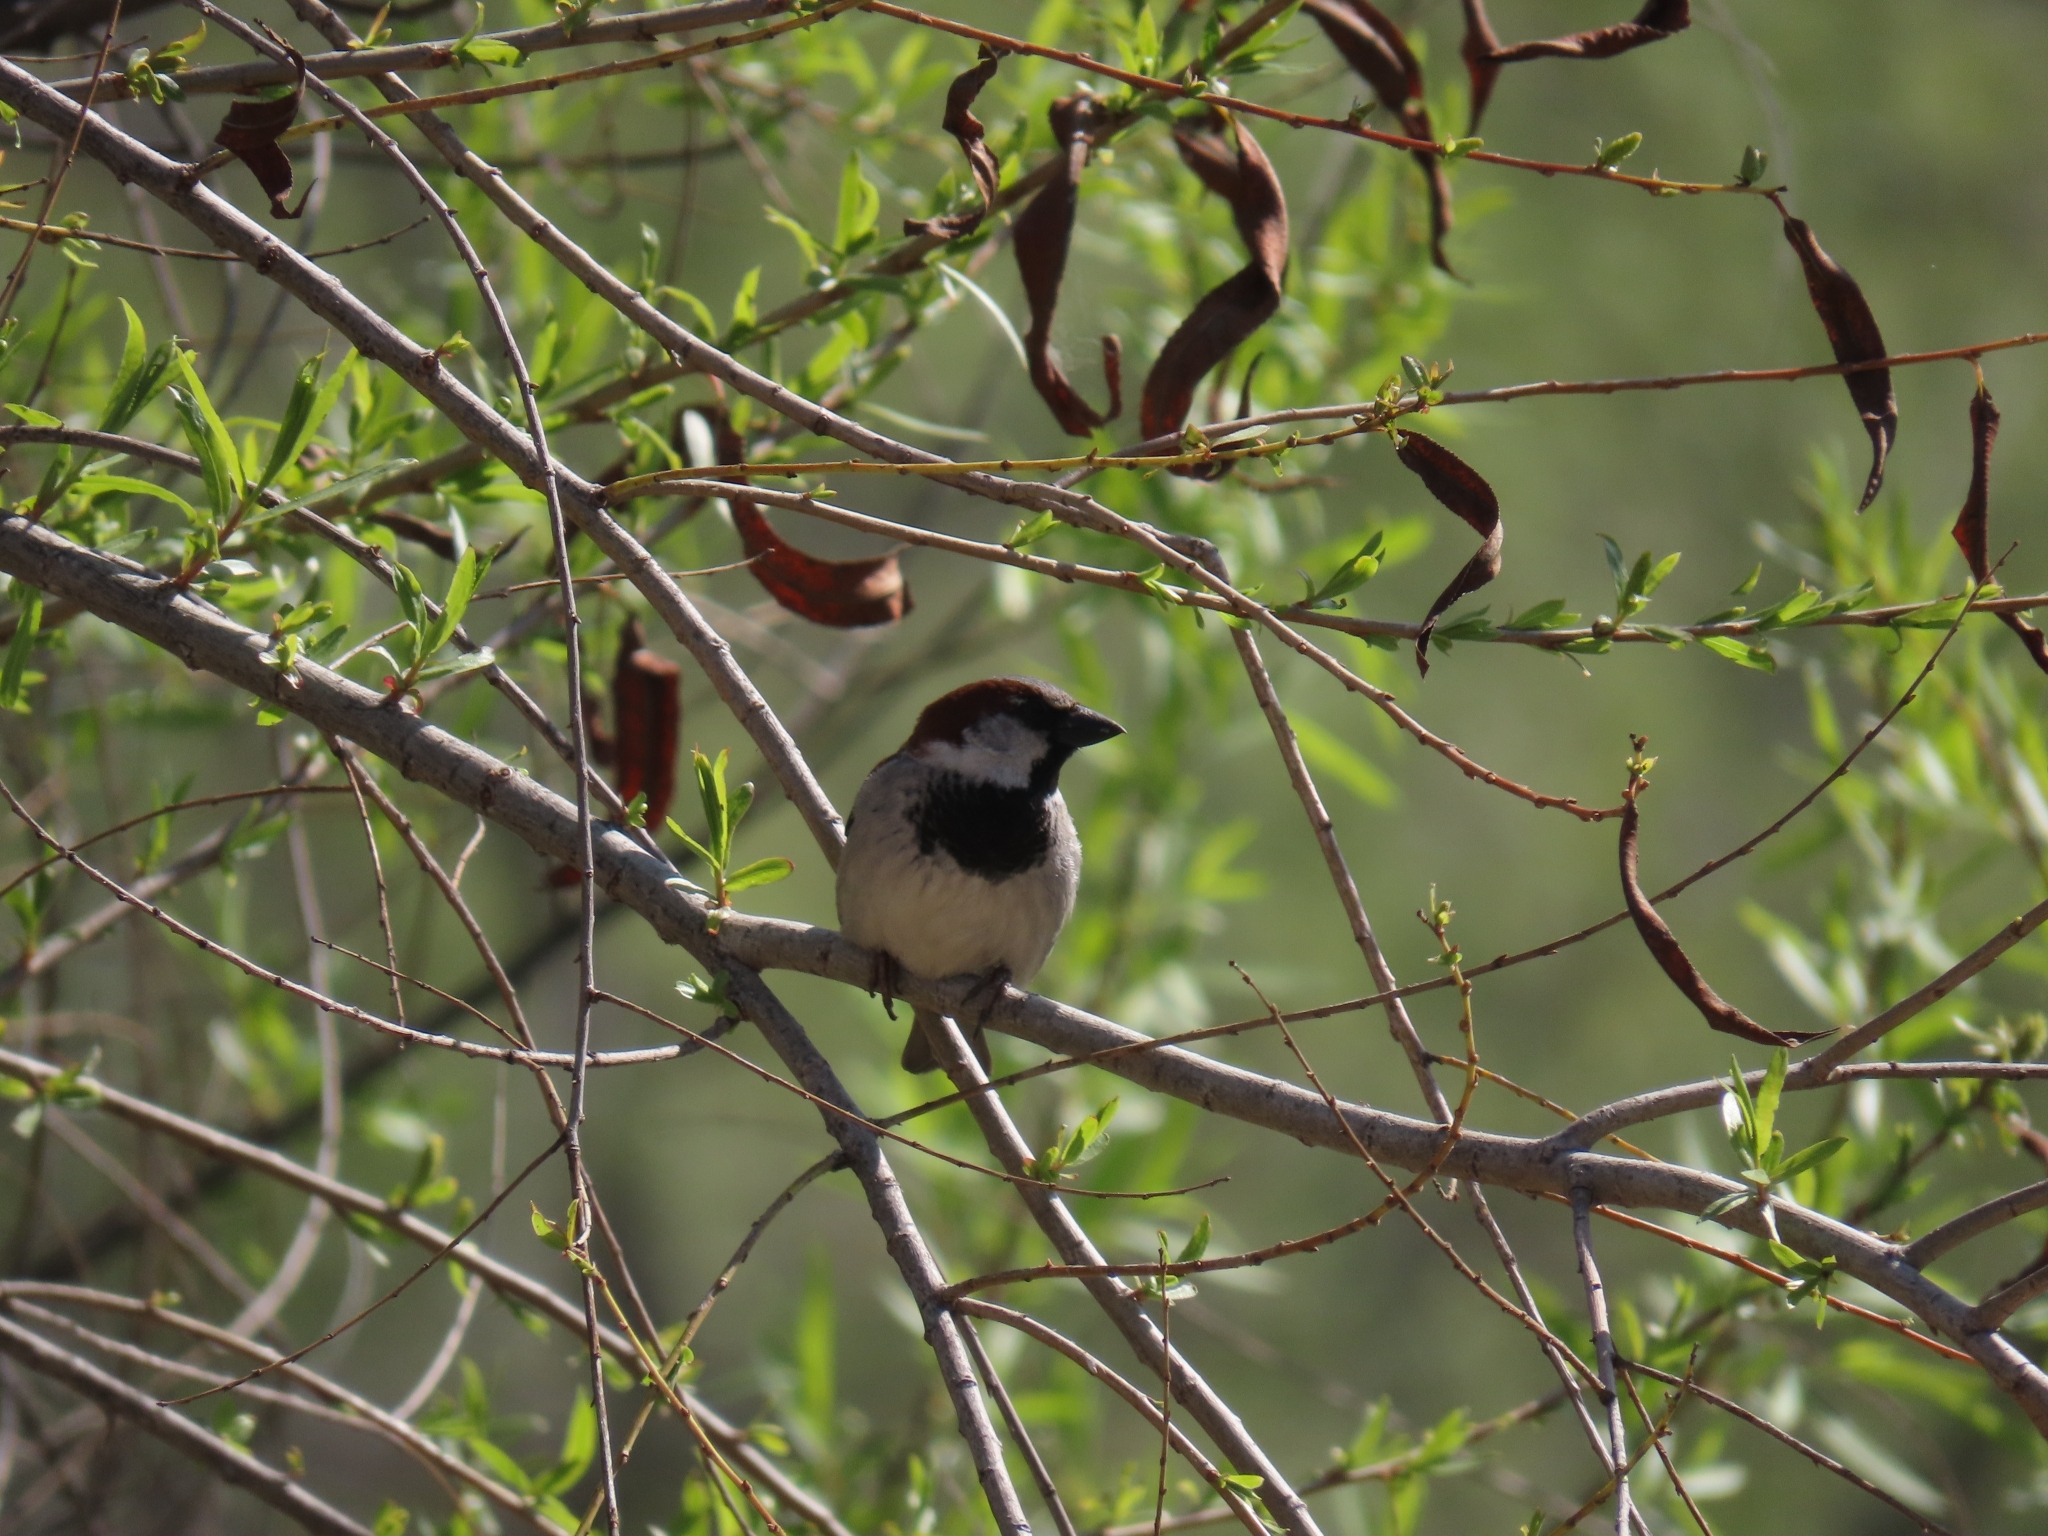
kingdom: Animalia
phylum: Chordata
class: Aves
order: Passeriformes
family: Passeridae
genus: Passer
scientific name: Passer domesticus
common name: House sparrow
